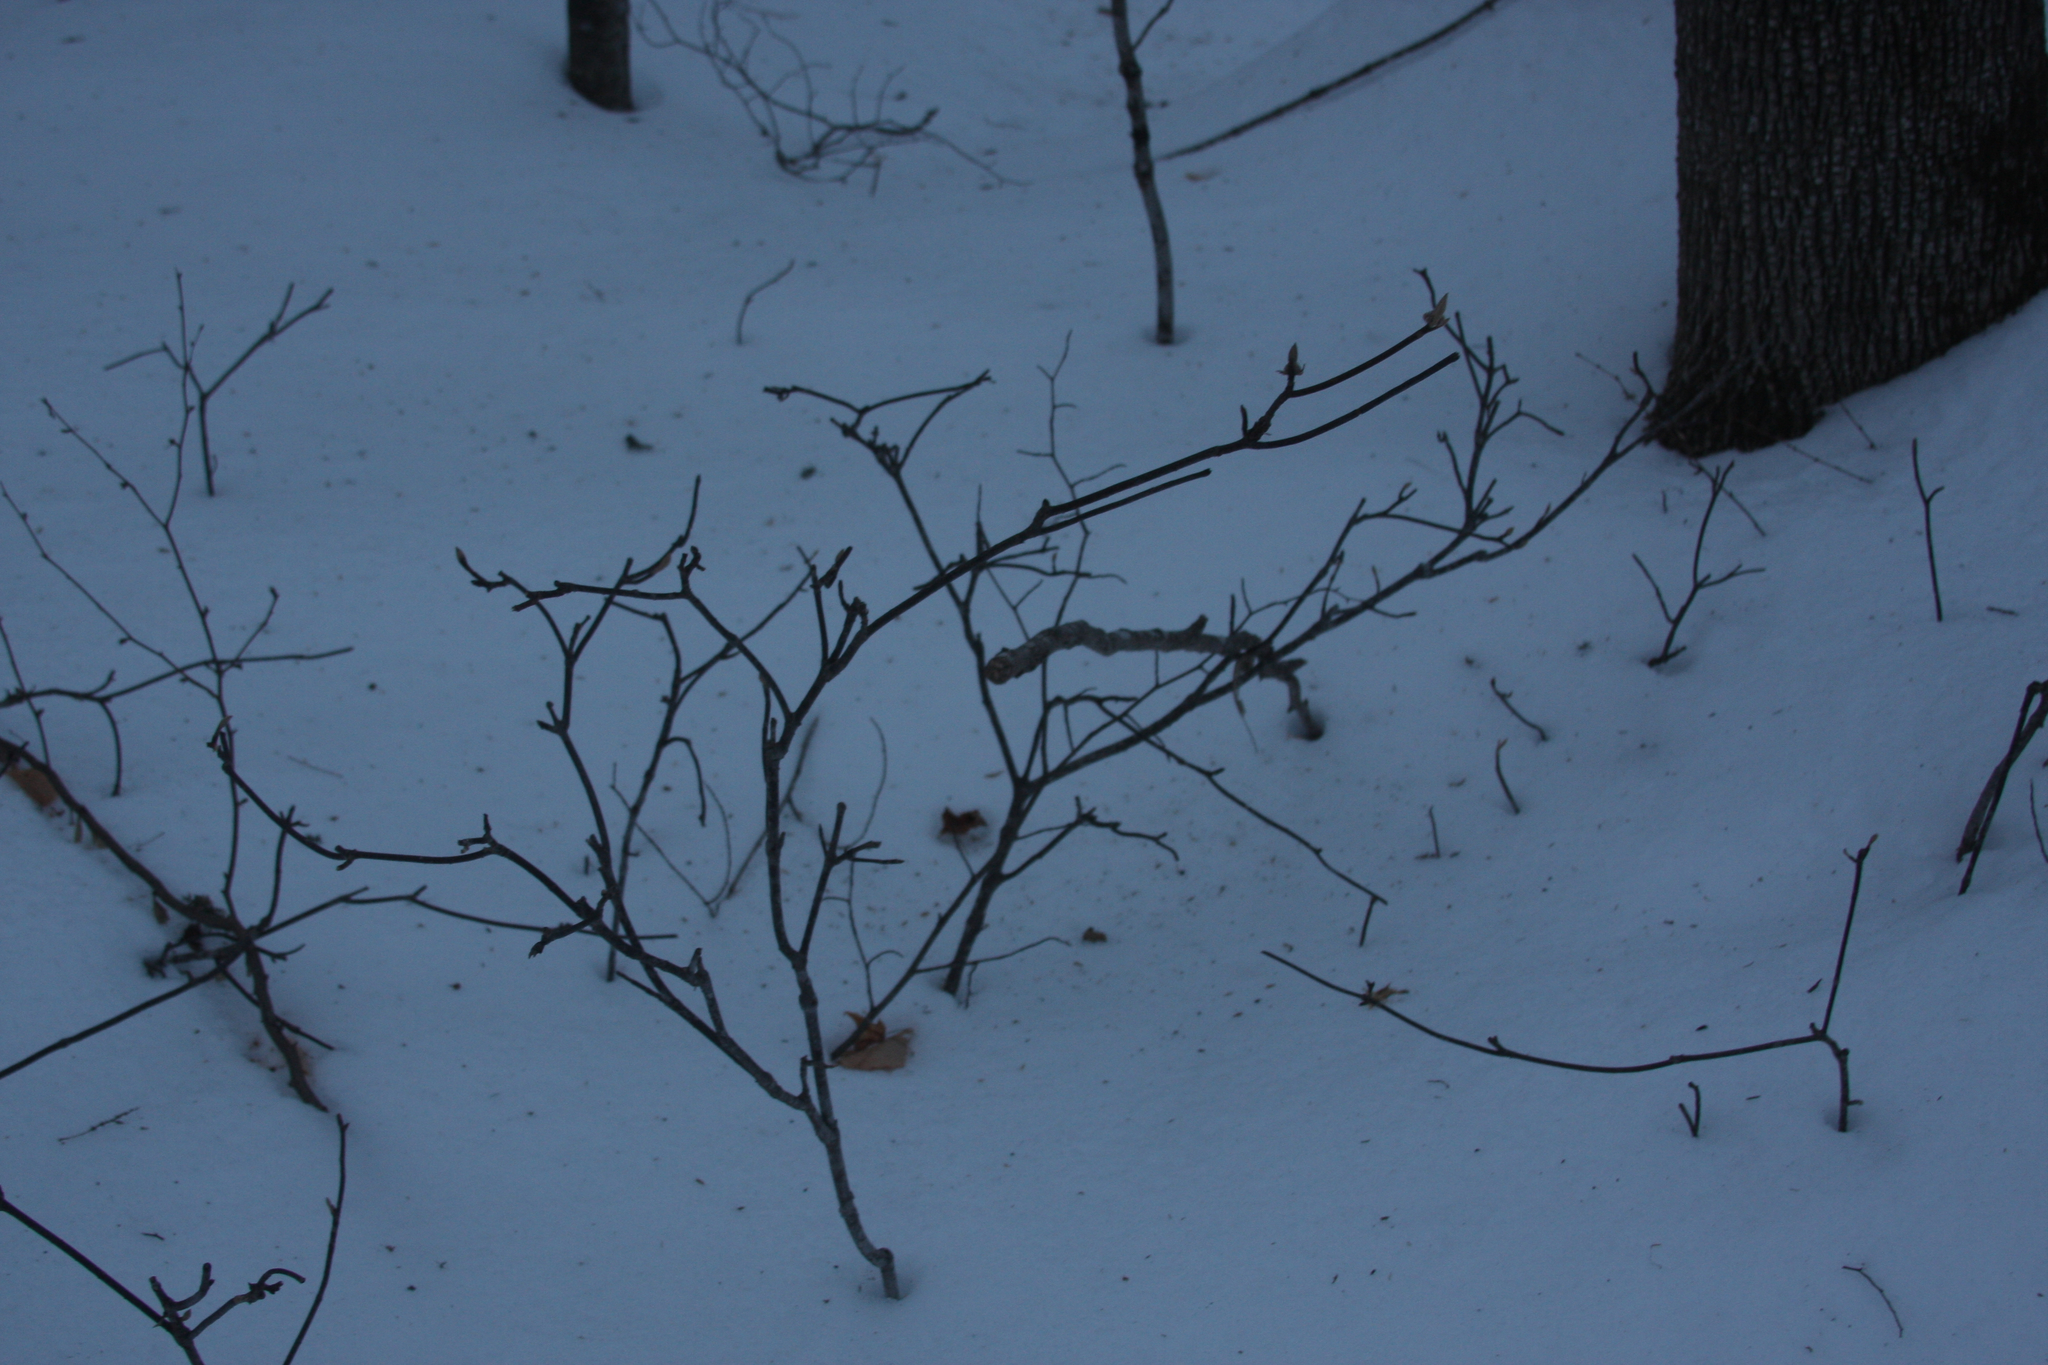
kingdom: Plantae
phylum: Tracheophyta
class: Magnoliopsida
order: Dipsacales
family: Viburnaceae
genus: Viburnum
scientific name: Viburnum lantanoides
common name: Hobblebush
